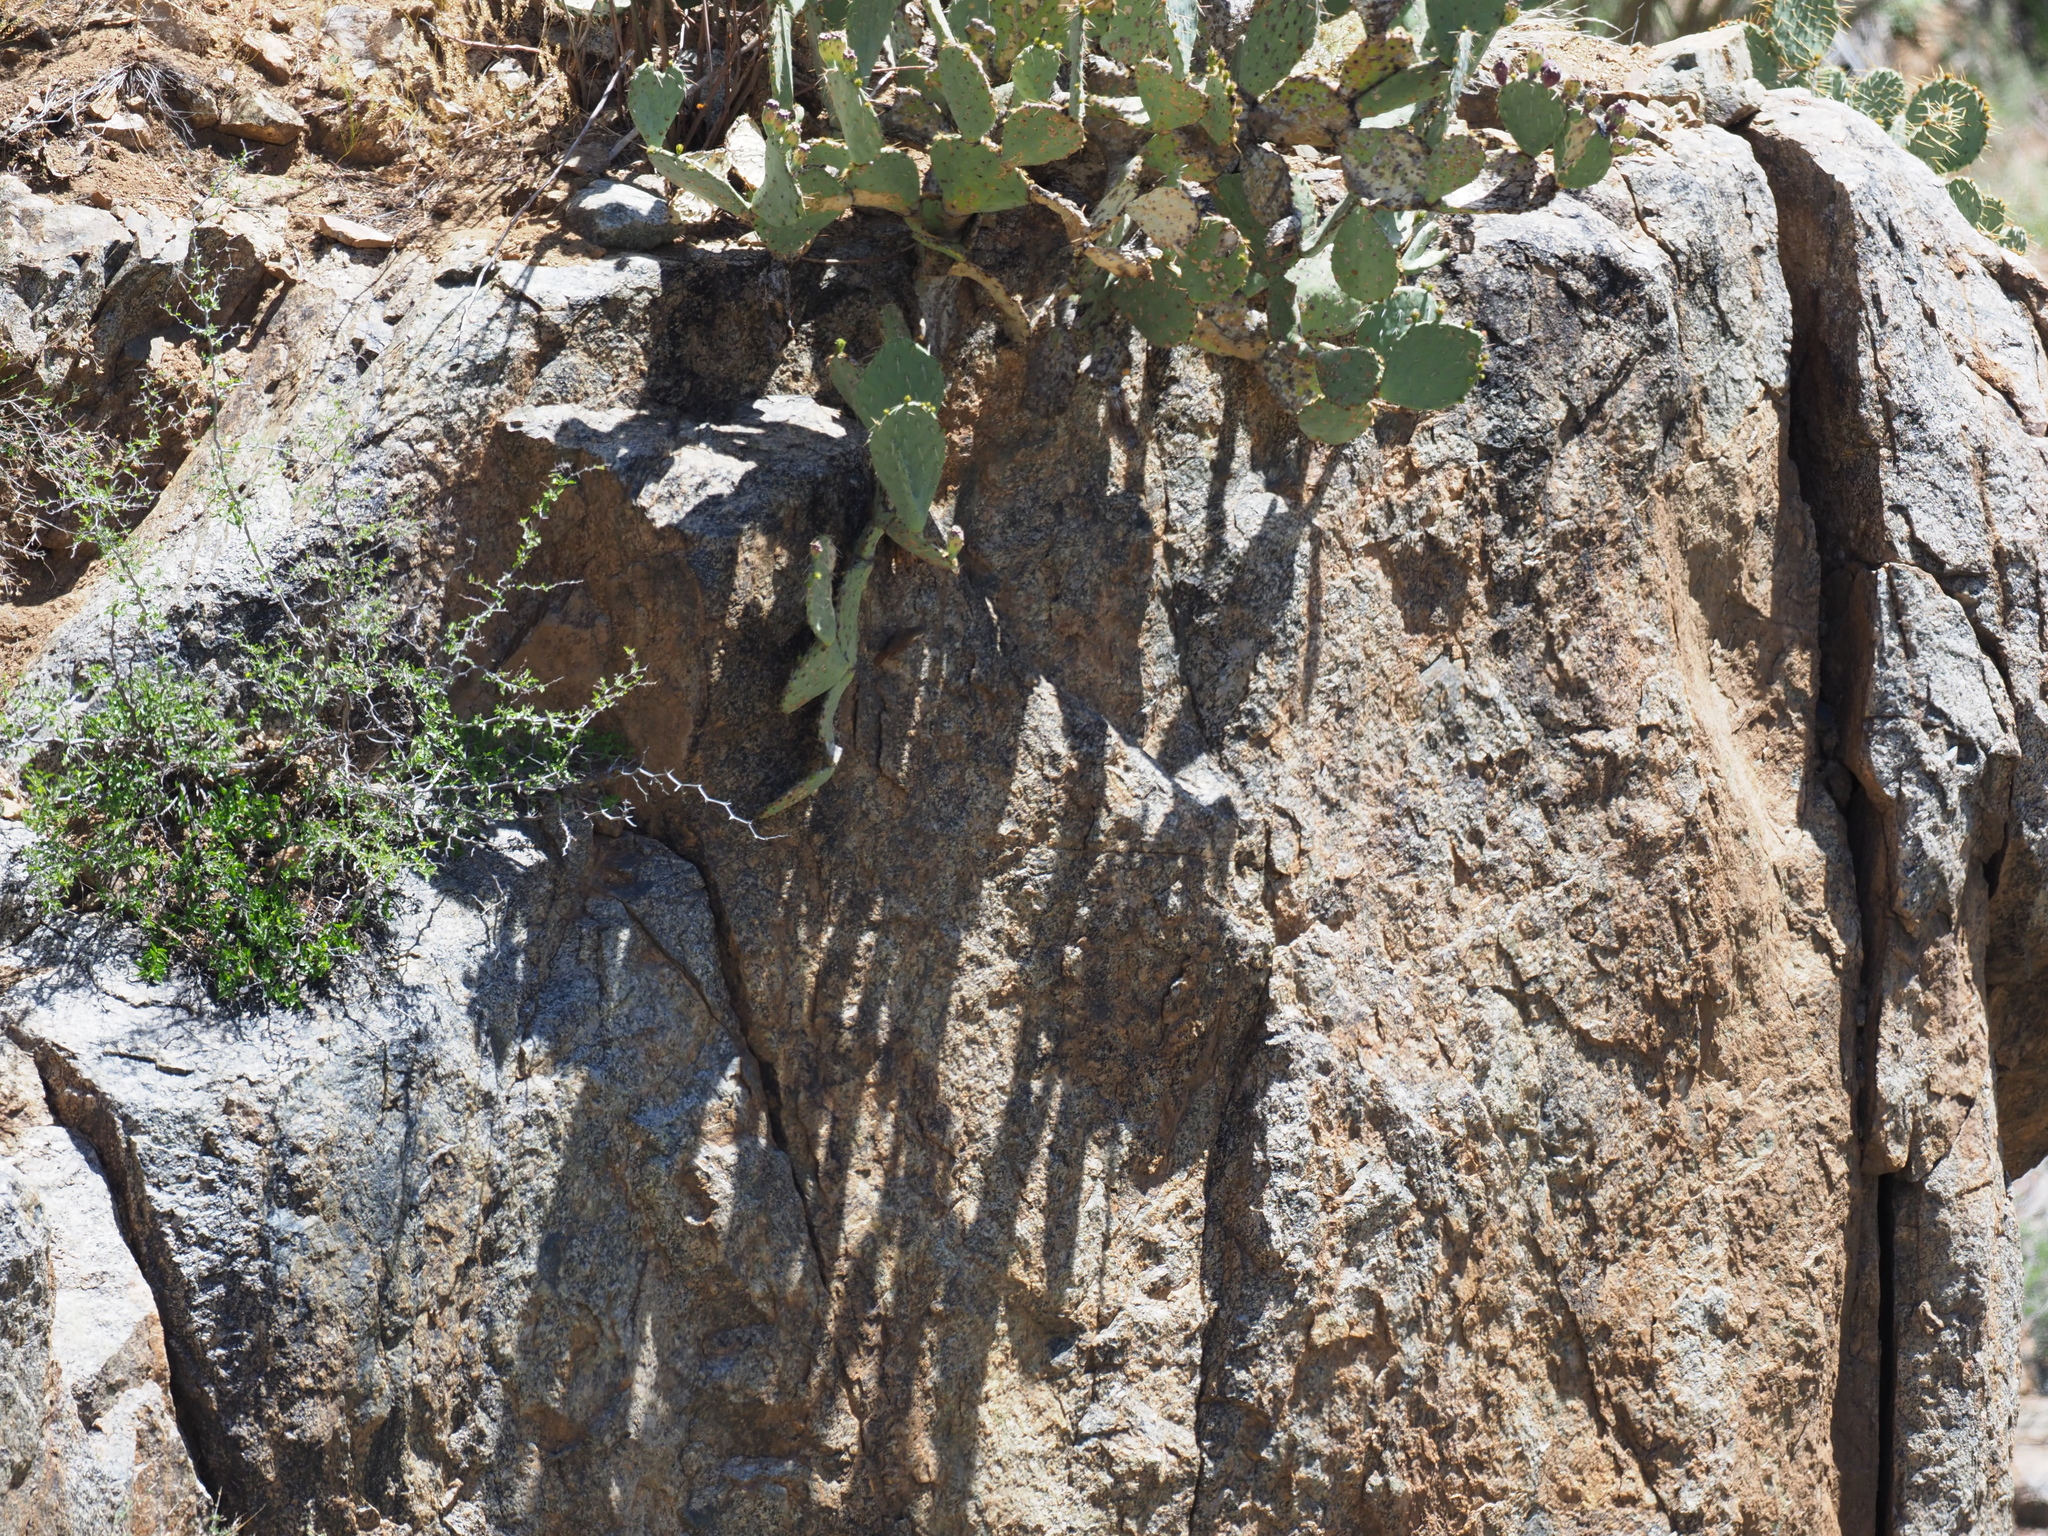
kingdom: Animalia
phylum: Chordata
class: Aves
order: Passeriformes
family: Troglodytidae
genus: Catherpes
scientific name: Catherpes mexicanus
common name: Canyon wren
